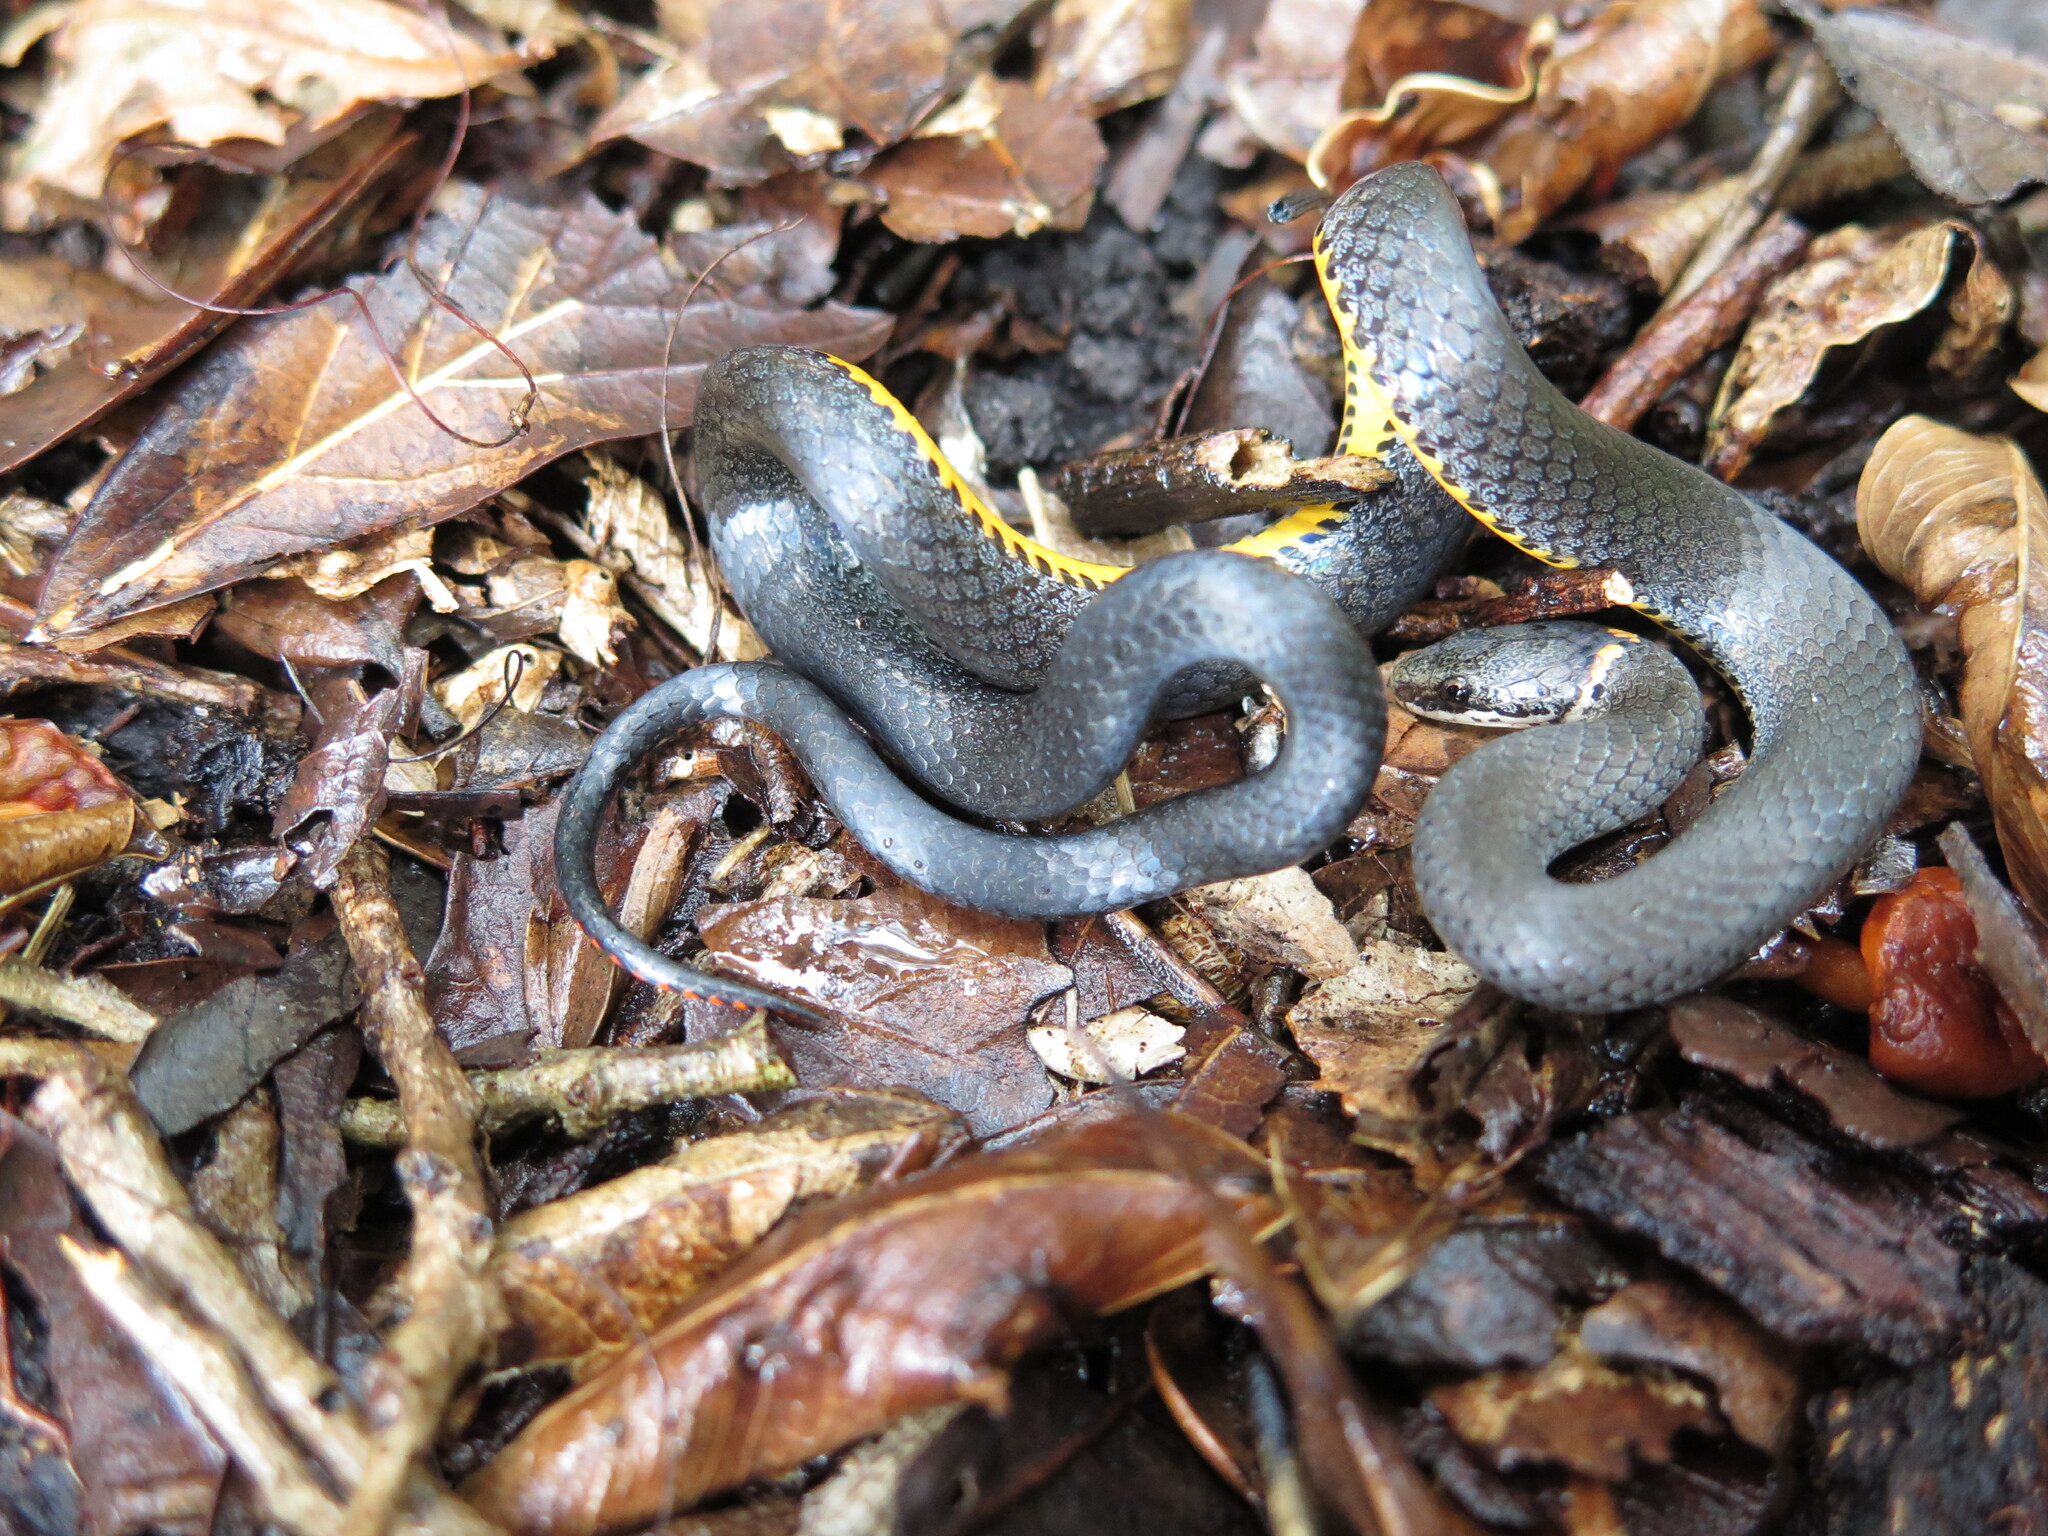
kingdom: Animalia
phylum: Chordata
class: Squamata
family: Colubridae
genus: Diadophis
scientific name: Diadophis punctatus
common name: Ringneck snake
